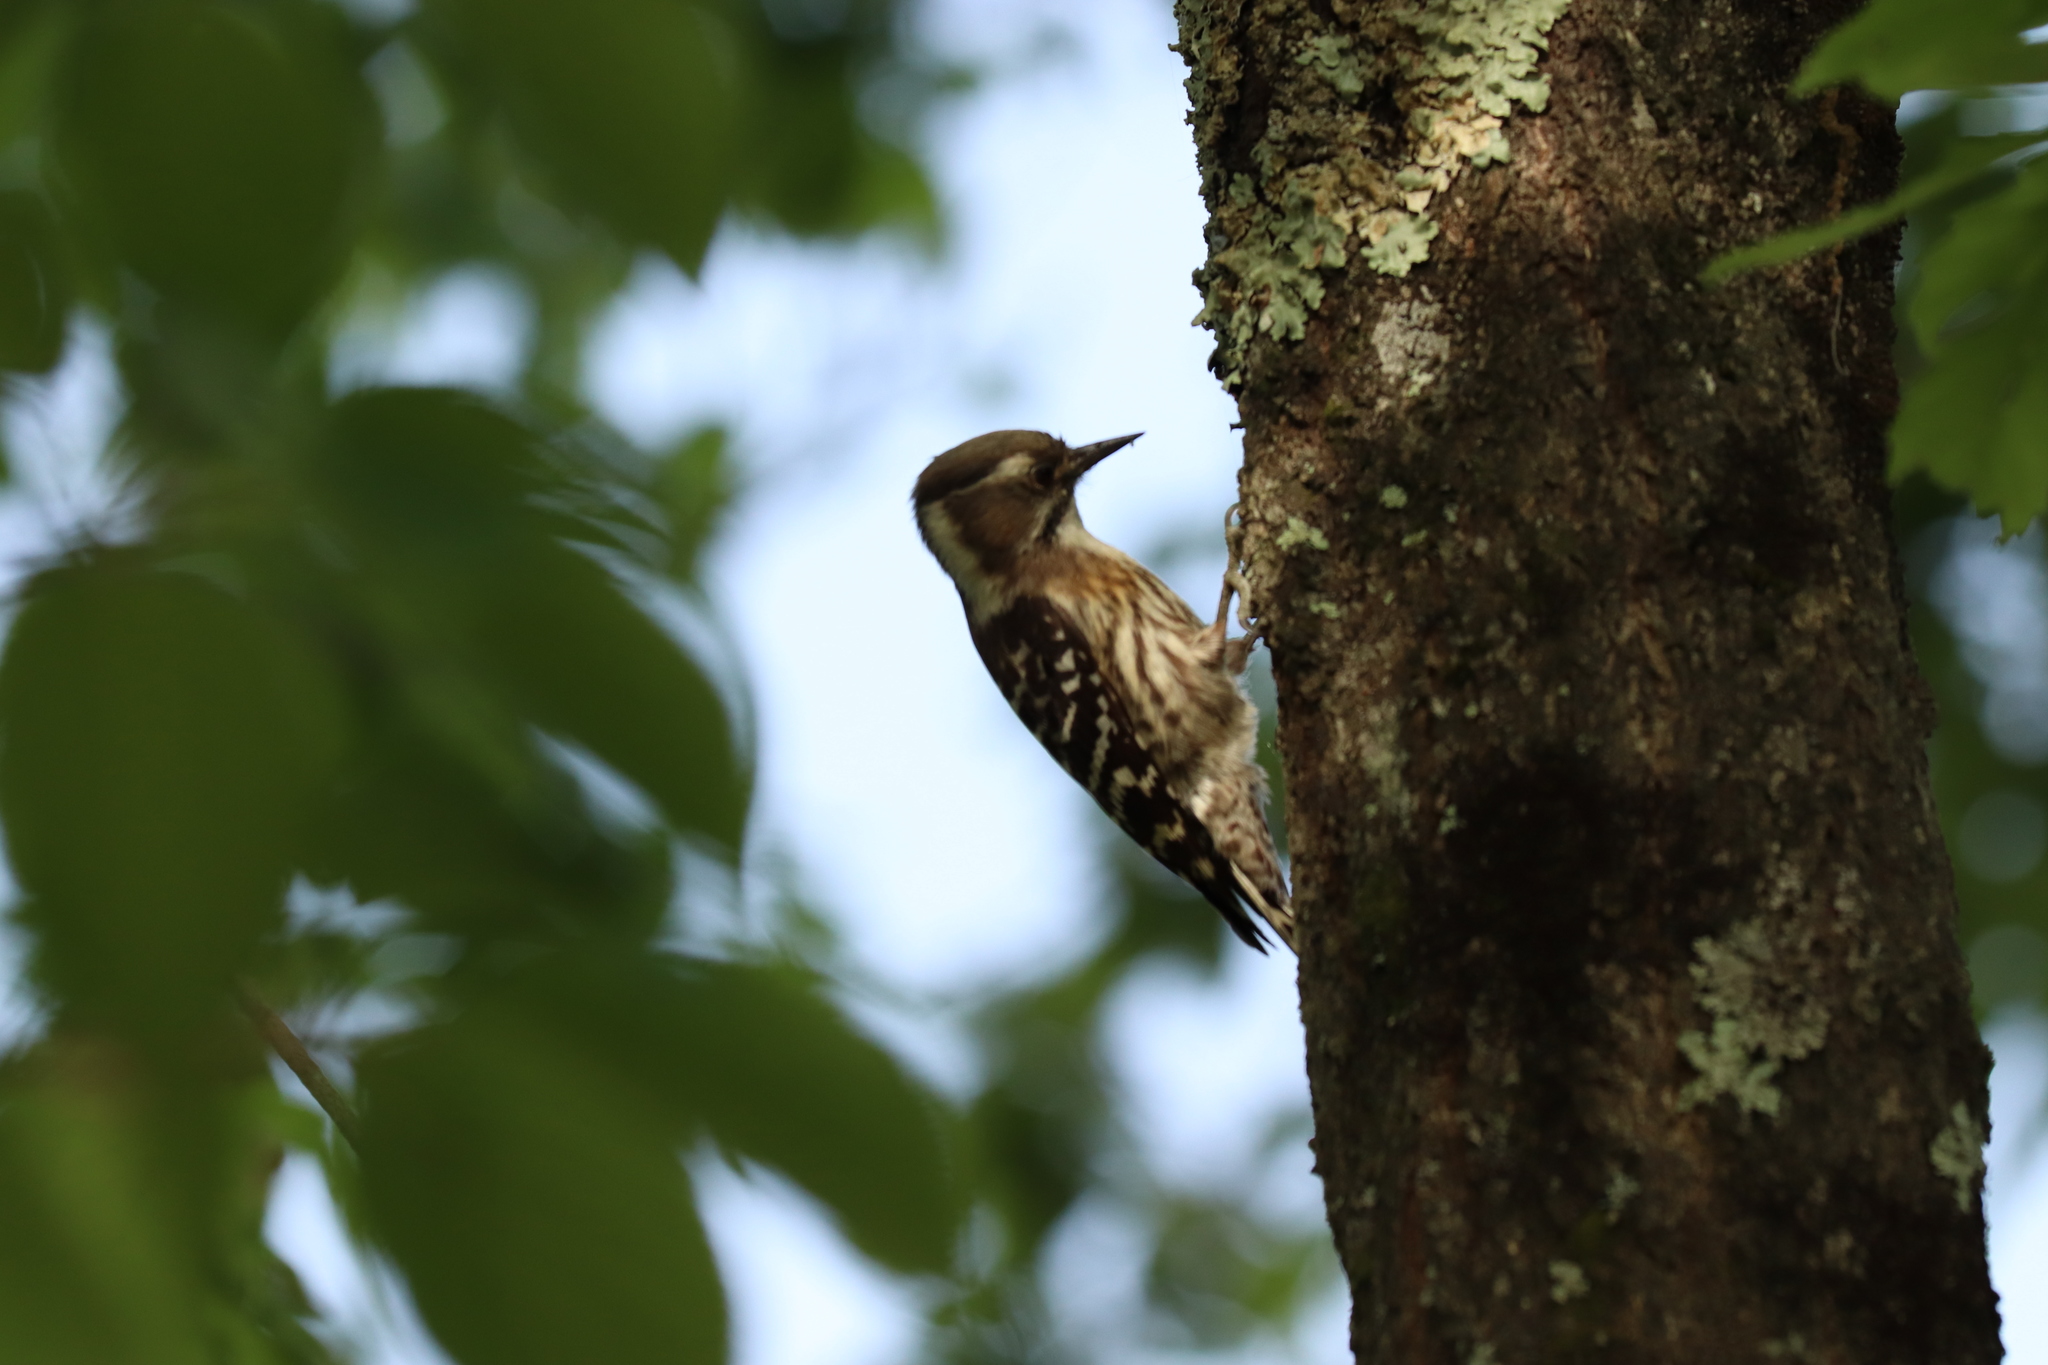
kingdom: Animalia
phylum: Chordata
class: Aves
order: Piciformes
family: Picidae
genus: Yungipicus
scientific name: Yungipicus kizuki
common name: Japanese pygmy woodpecker
